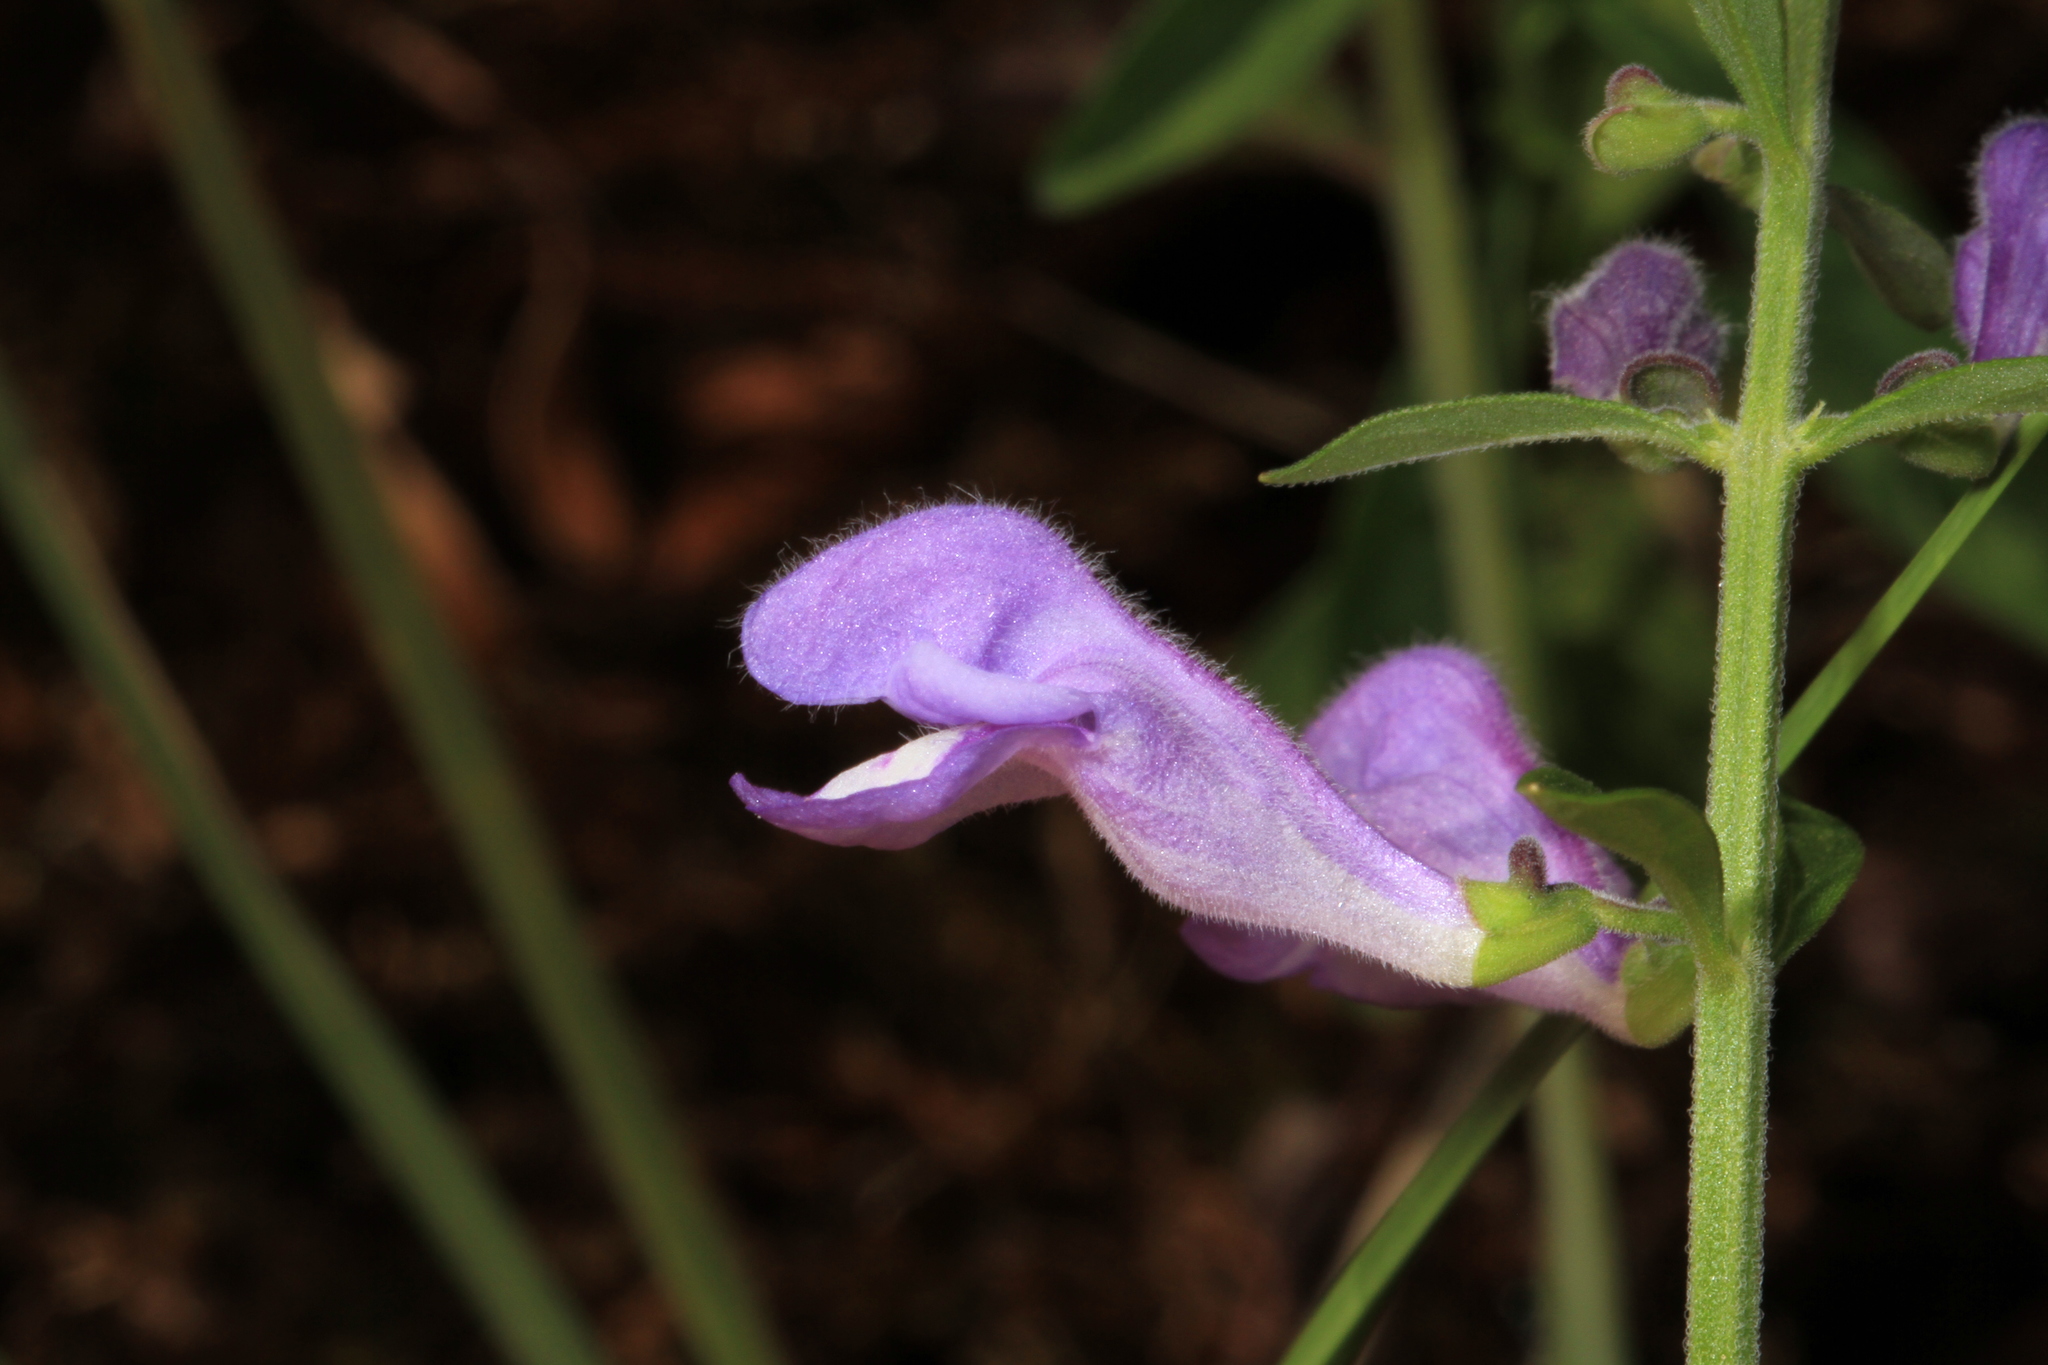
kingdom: Plantae
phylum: Tracheophyta
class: Magnoliopsida
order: Lamiales
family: Lamiaceae
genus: Scutellaria
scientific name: Scutellaria integrifolia
